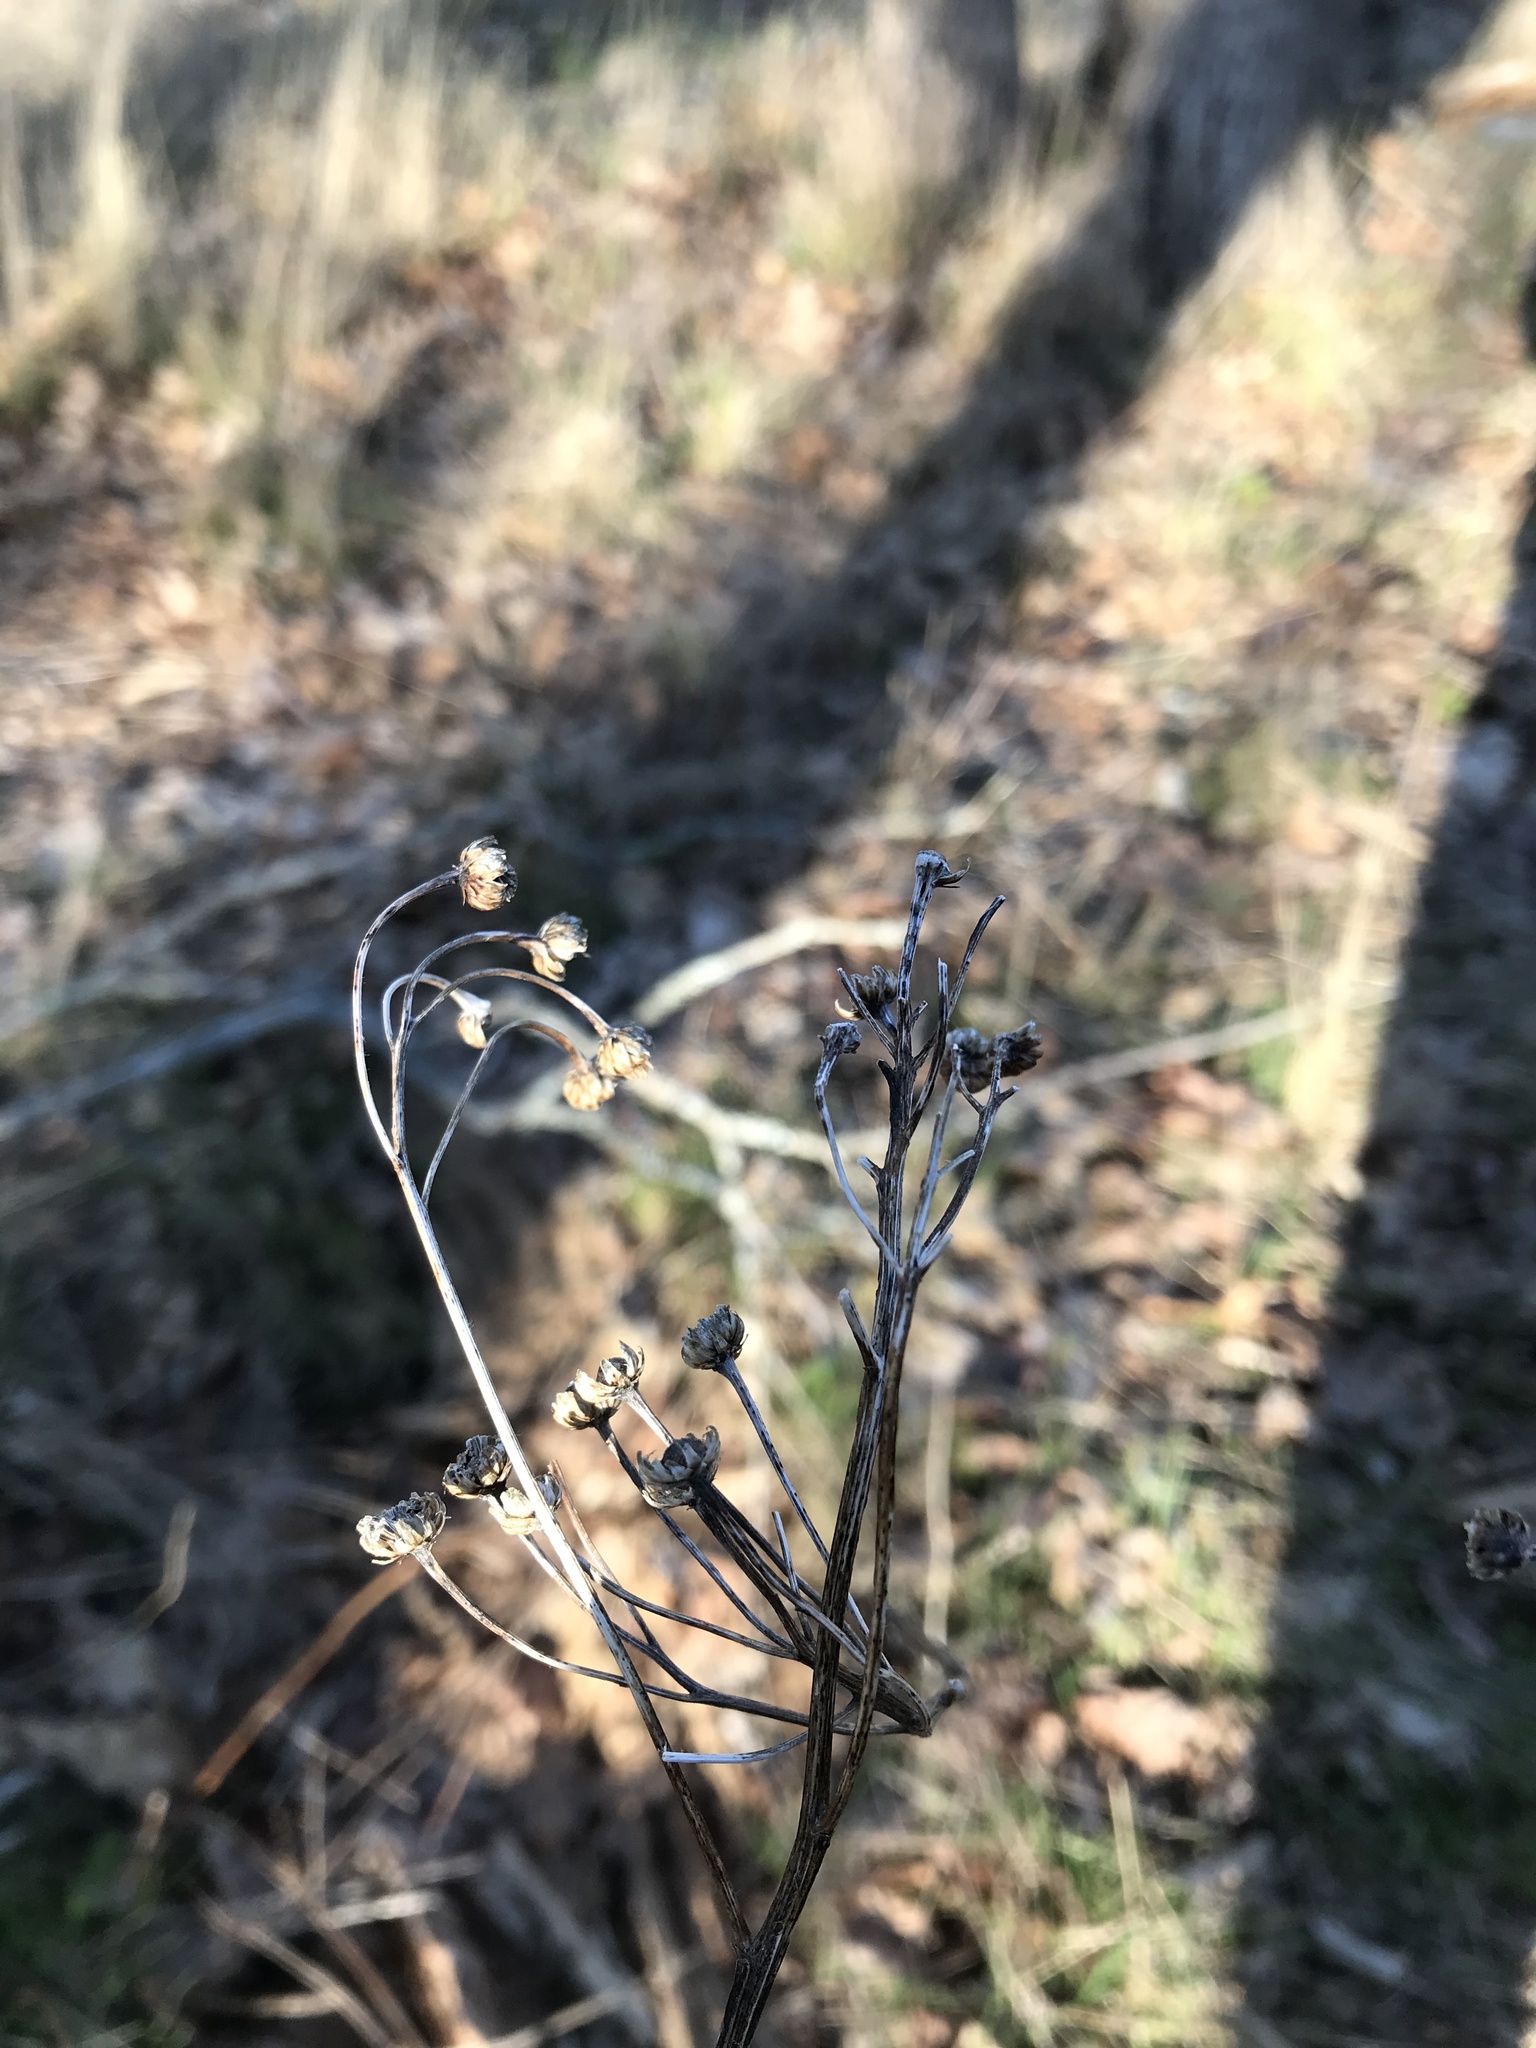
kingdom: Plantae
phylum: Tracheophyta
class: Magnoliopsida
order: Asterales
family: Asteraceae
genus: Tanacetum
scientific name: Tanacetum vulgare
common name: Common tansy
